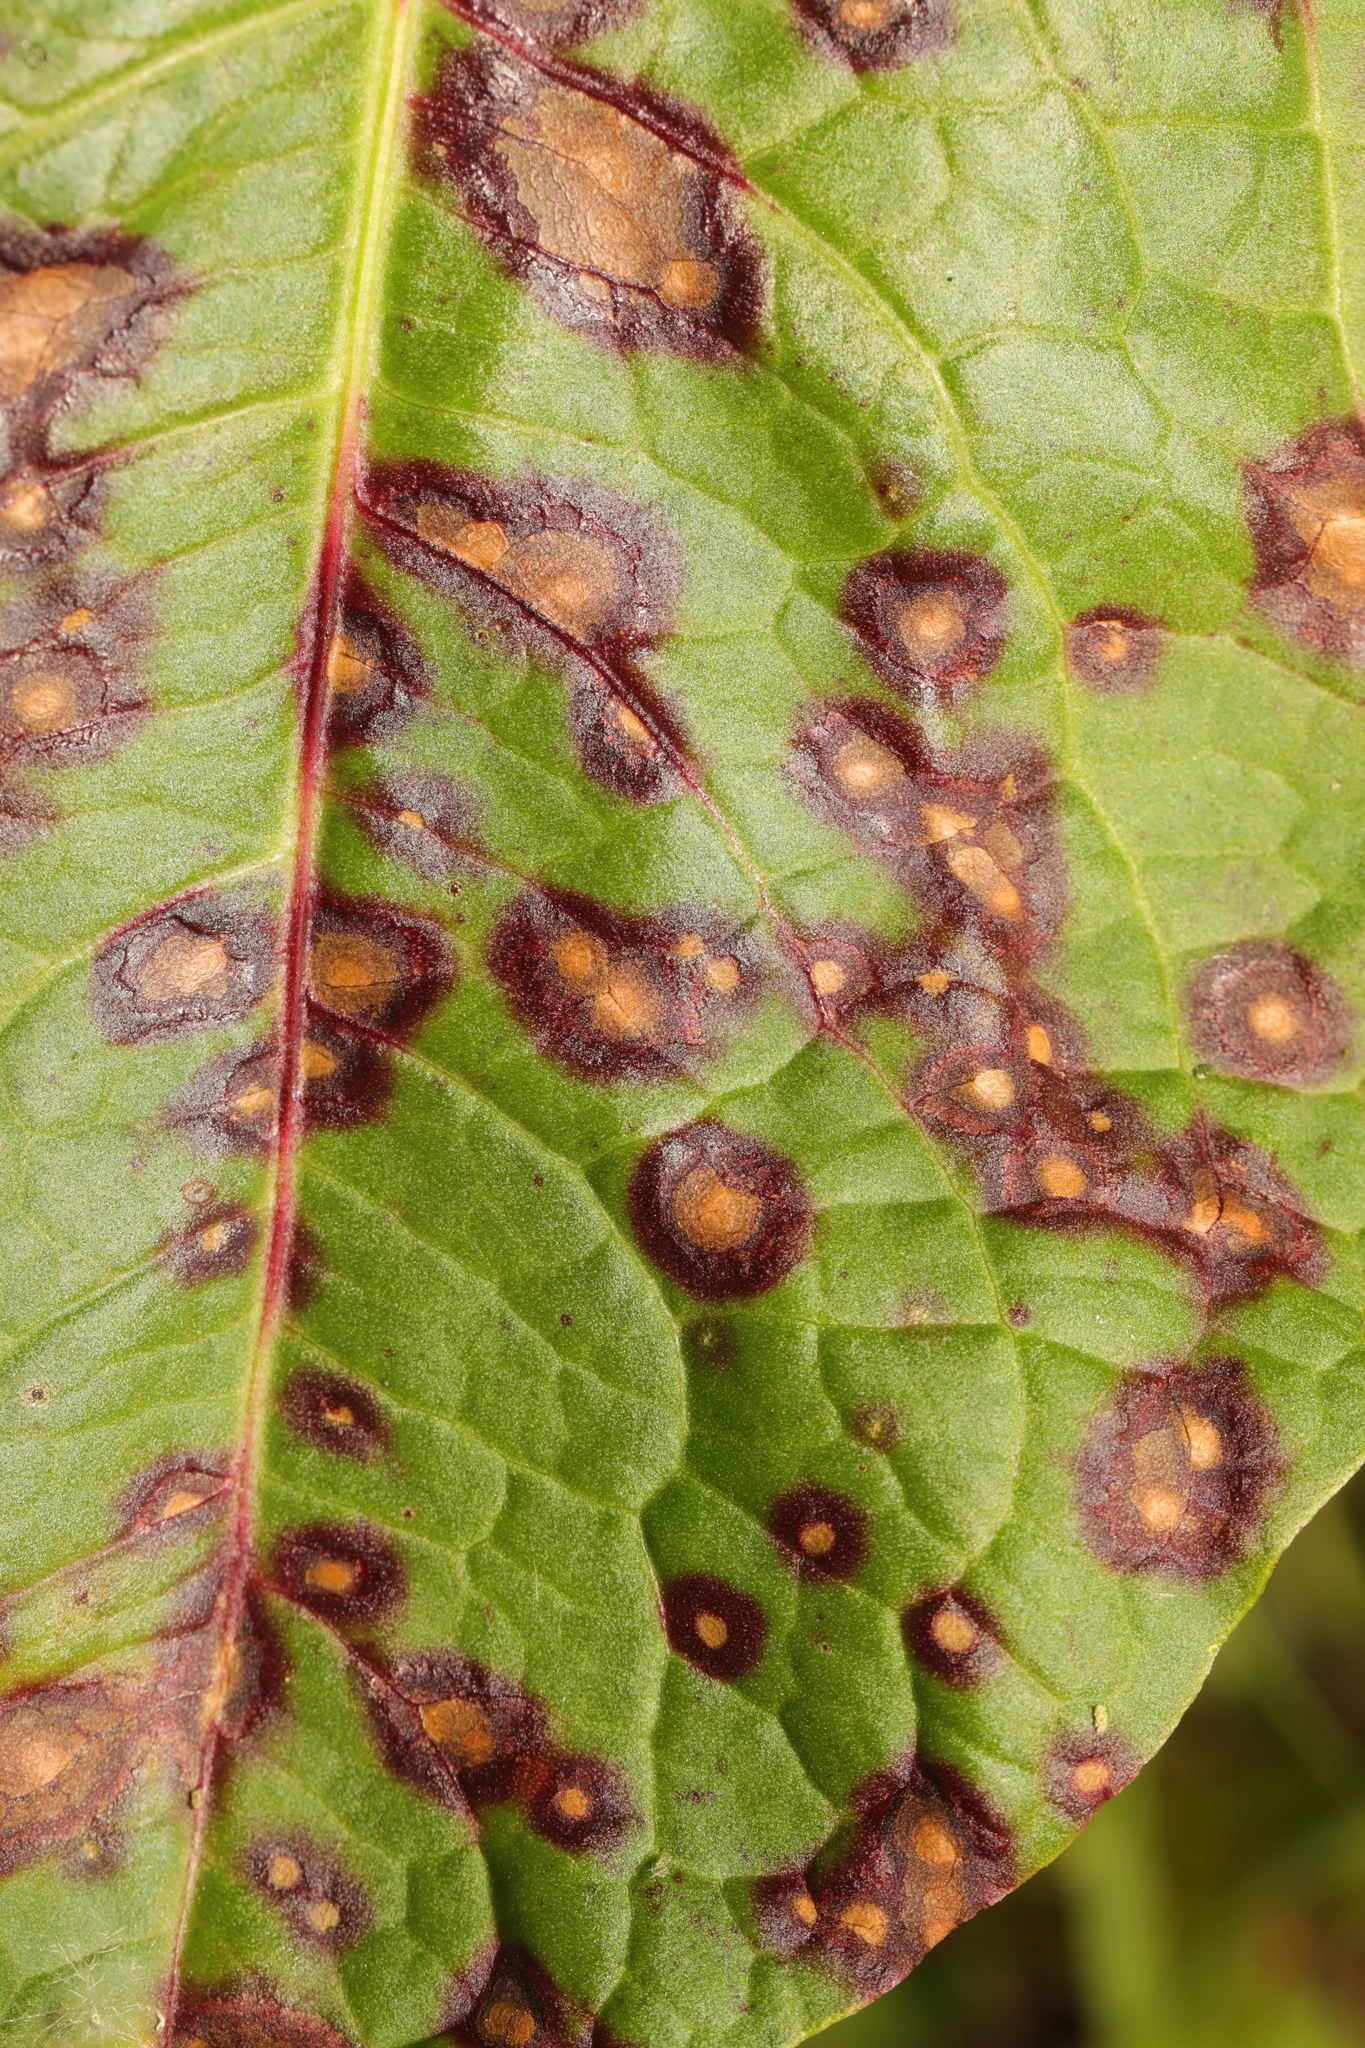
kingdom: Fungi
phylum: Ascomycota
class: Dothideomycetes
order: Mycosphaerellales
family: Mycosphaerellaceae
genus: Ramularia
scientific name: Ramularia rubella
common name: Red dock spot
